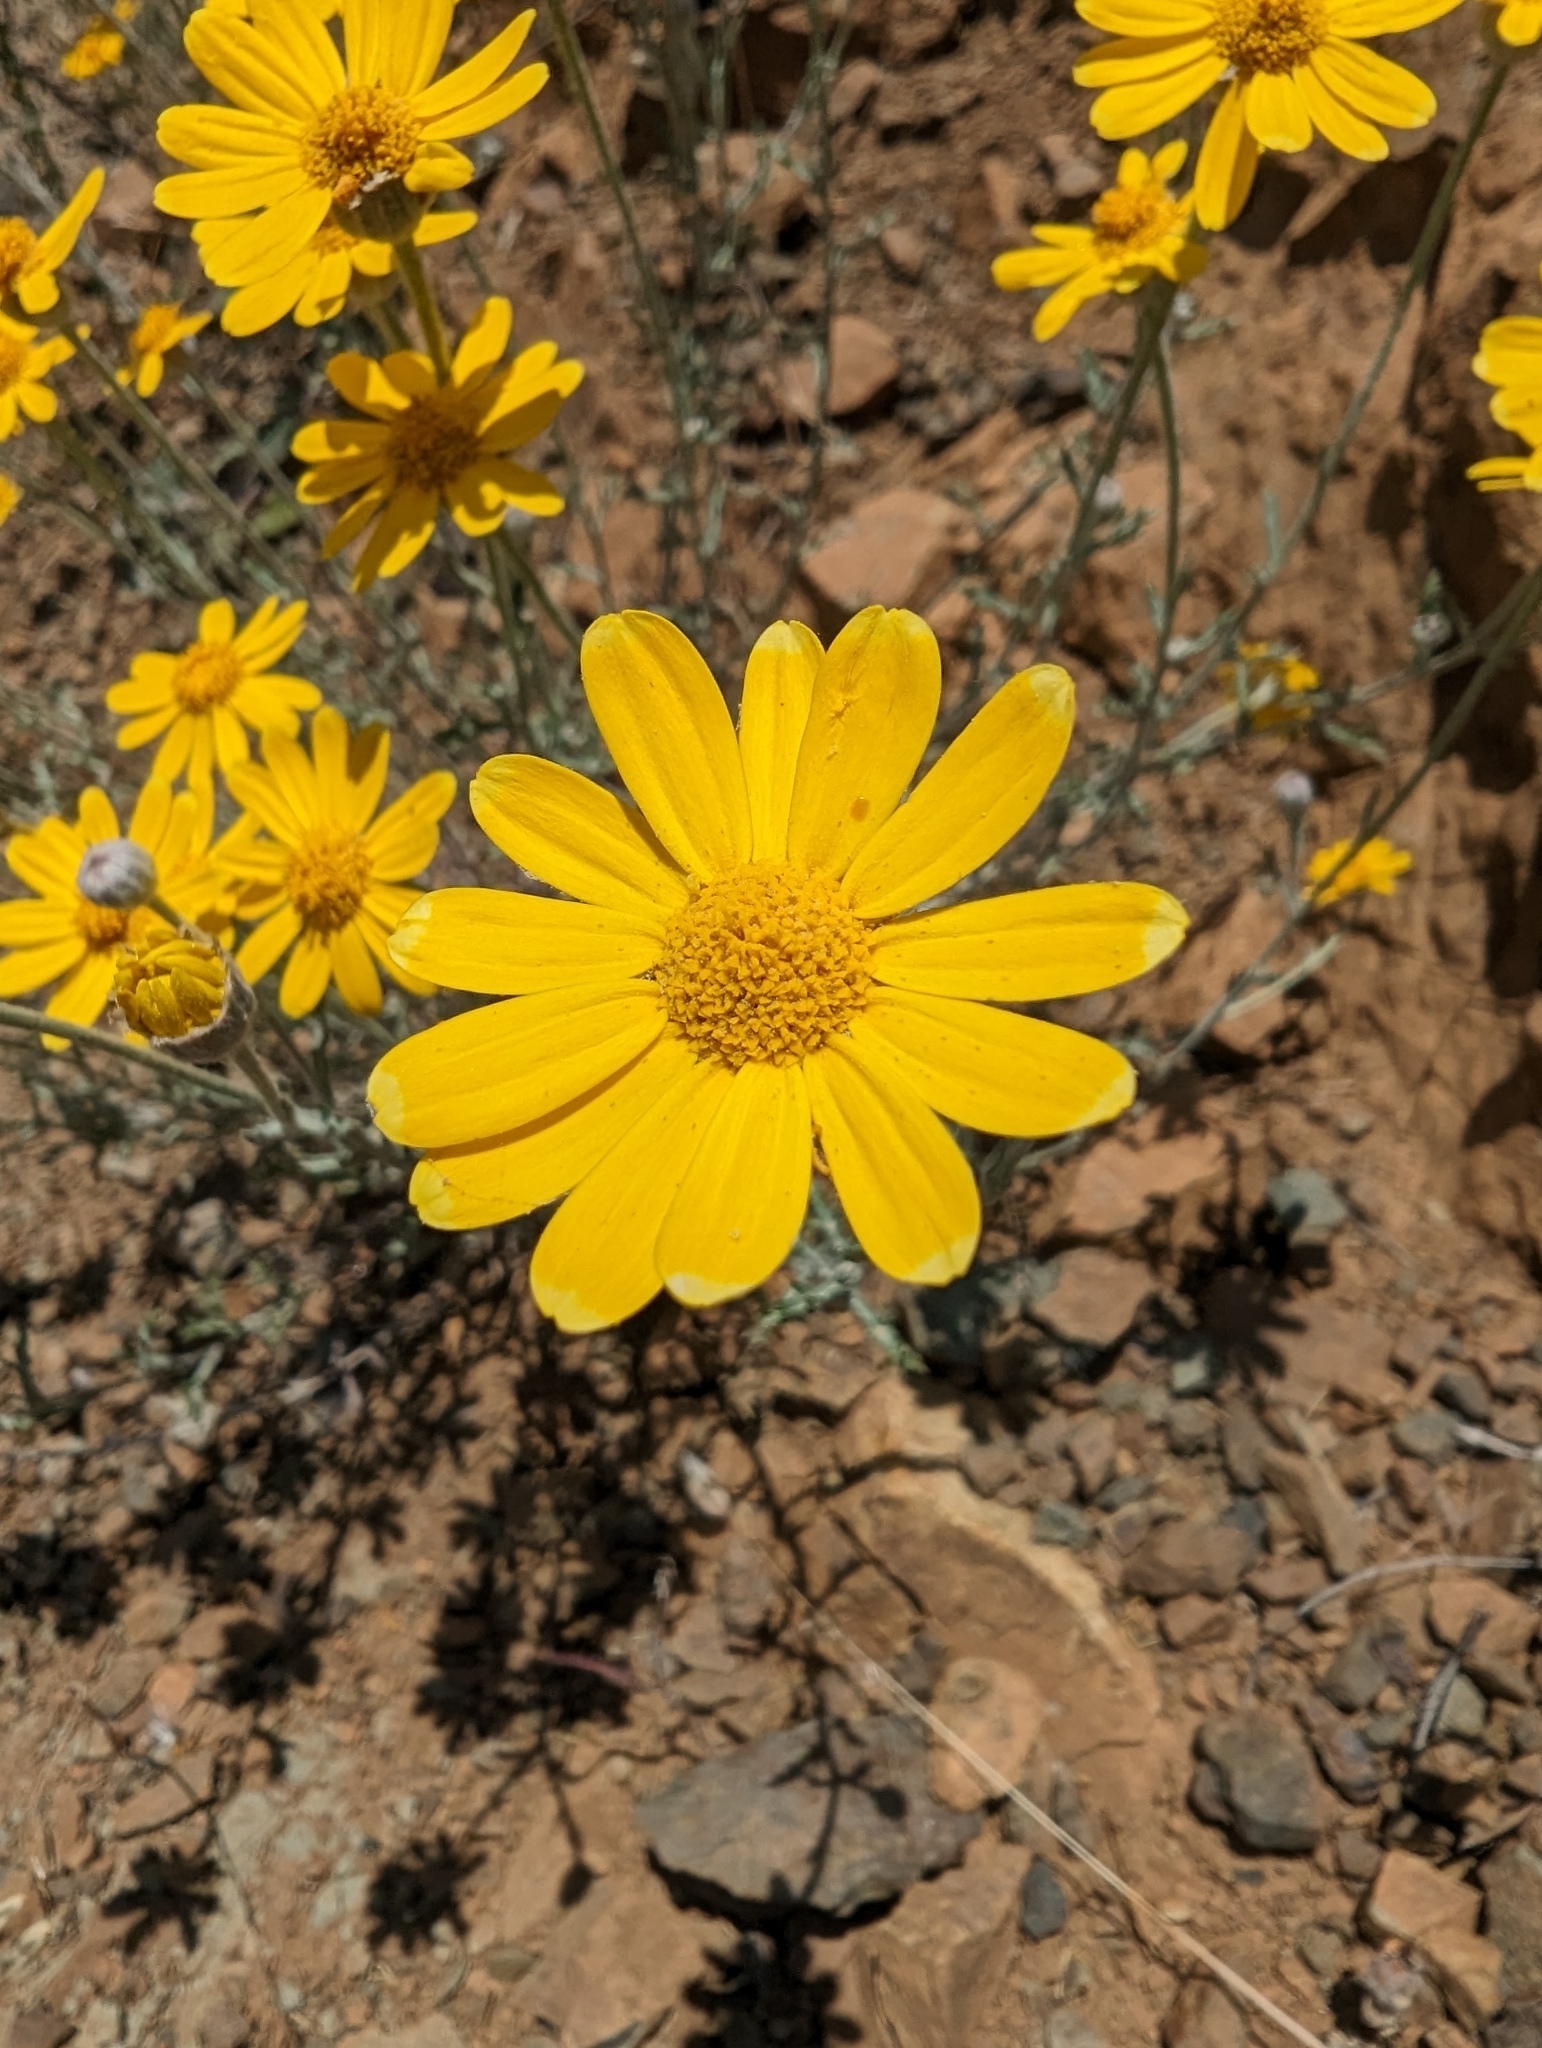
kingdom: Plantae
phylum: Tracheophyta
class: Magnoliopsida
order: Asterales
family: Asteraceae
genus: Eriophyllum
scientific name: Eriophyllum lanatum
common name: Common woolly-sunflower
